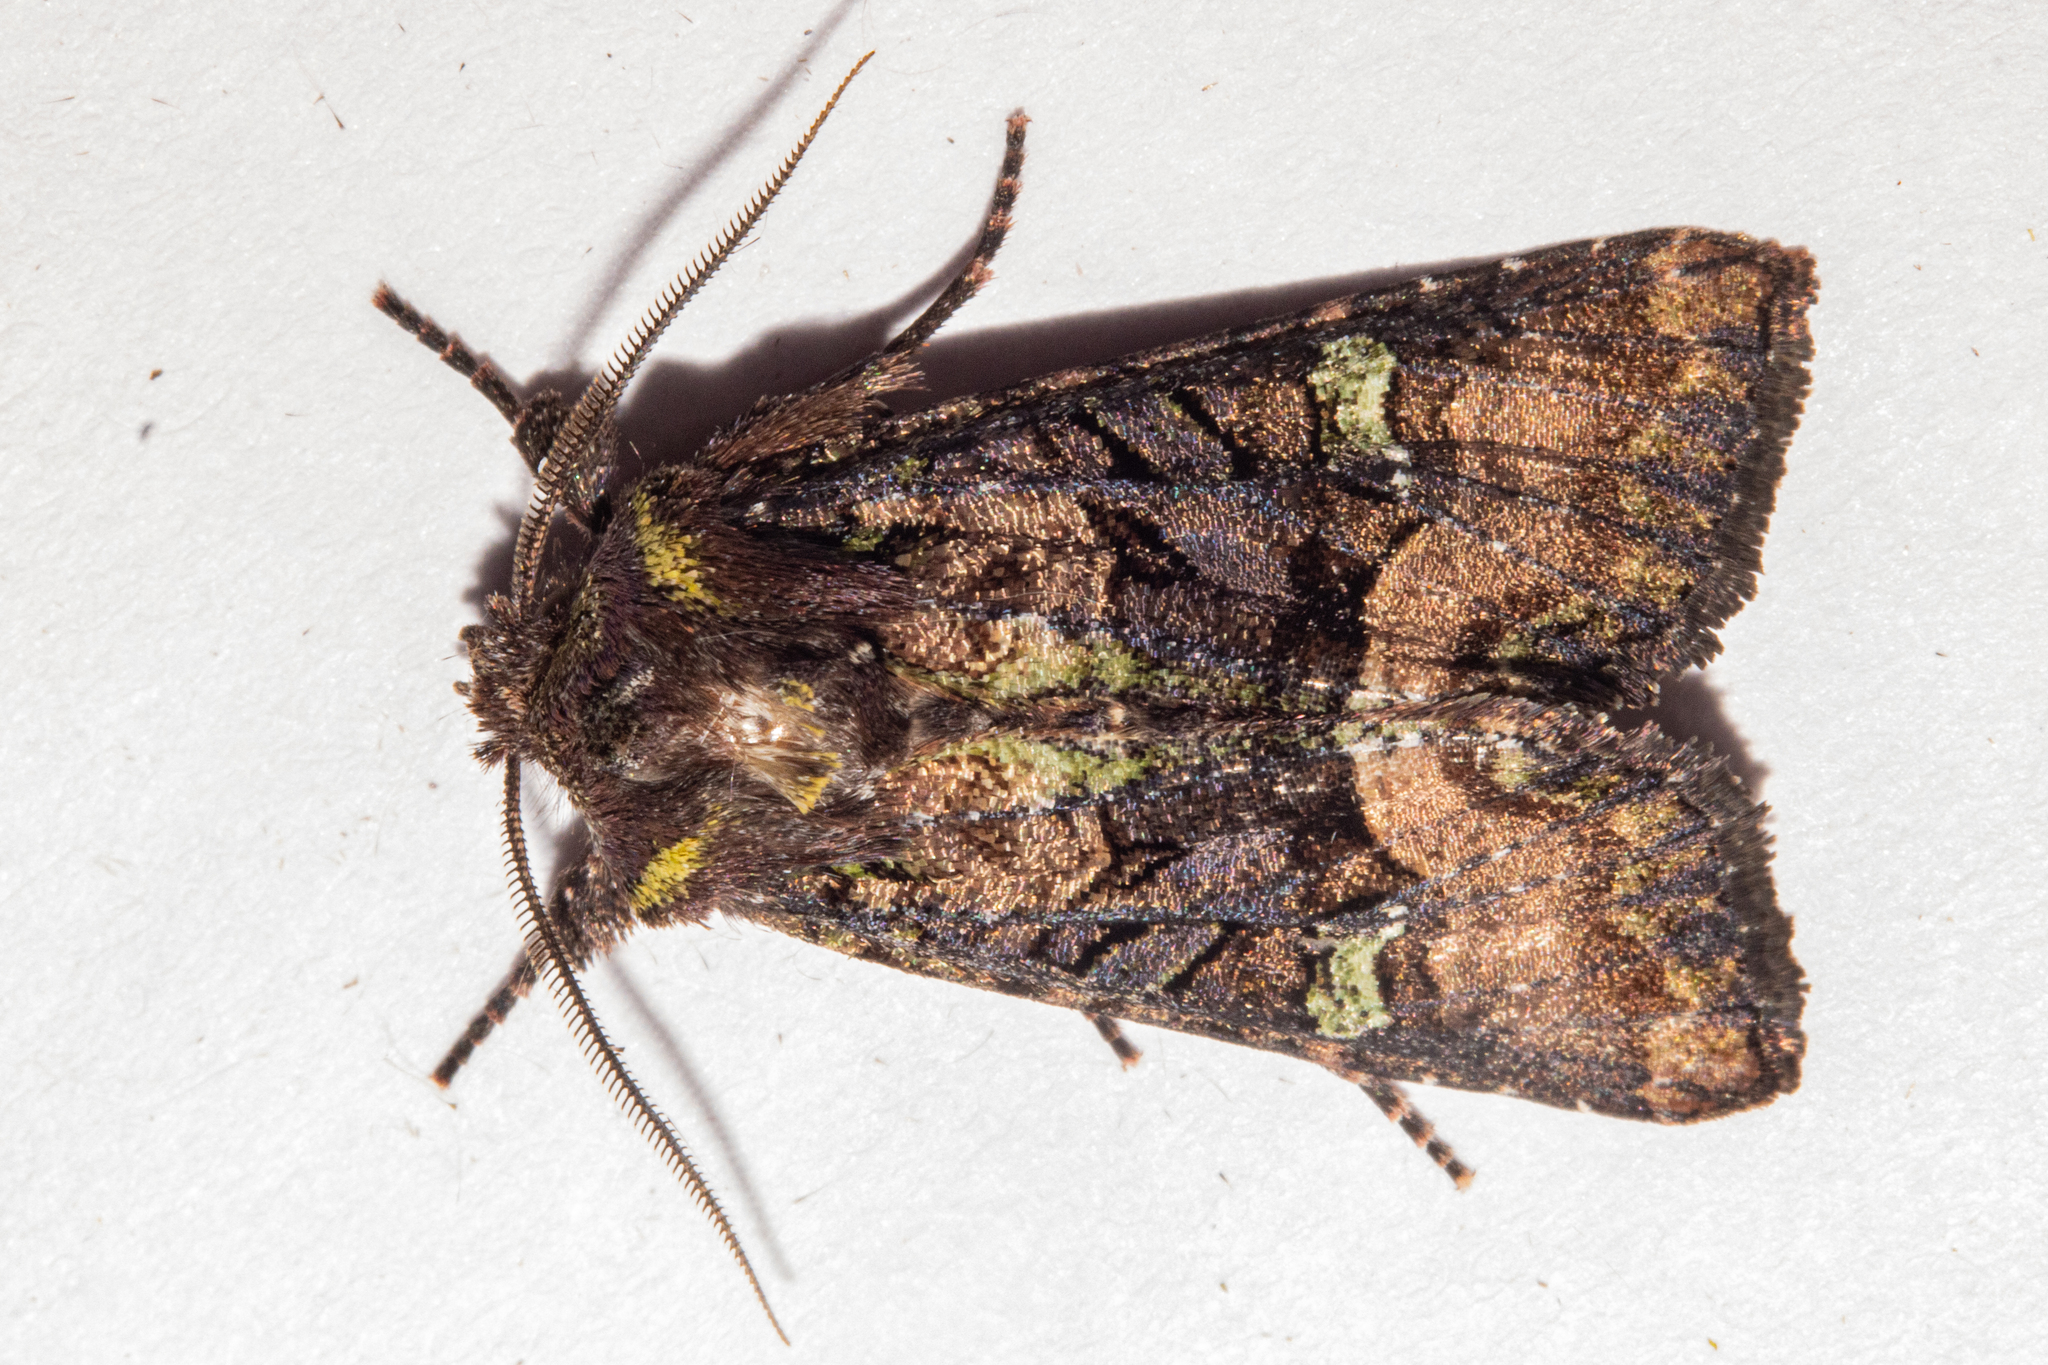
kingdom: Animalia
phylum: Arthropoda
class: Insecta
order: Lepidoptera
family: Noctuidae
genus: Meterana
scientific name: Meterana asterope
